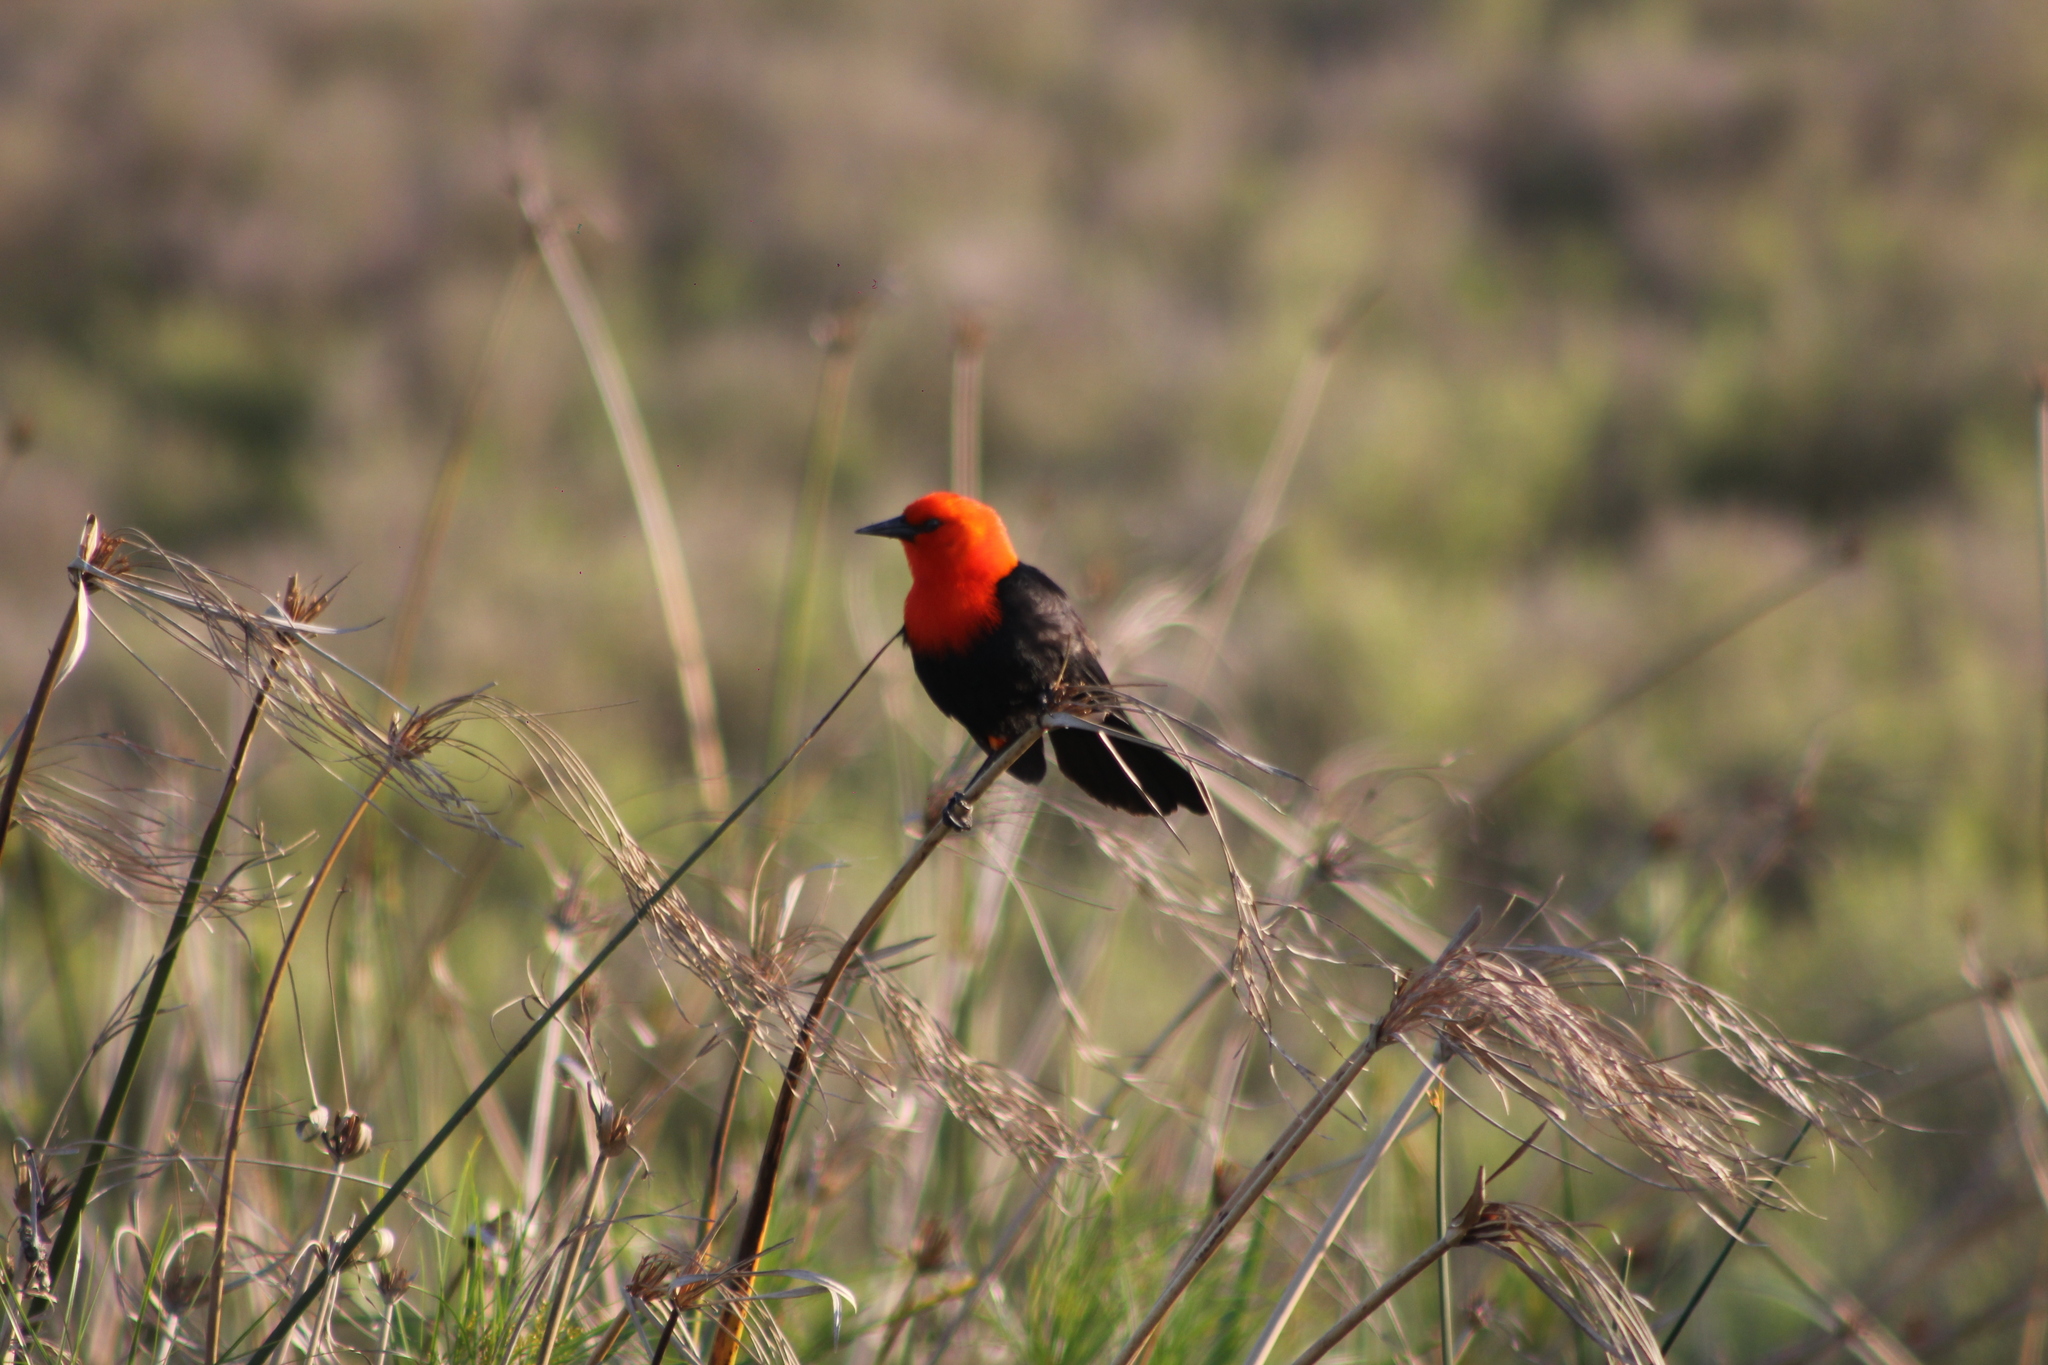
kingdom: Animalia
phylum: Chordata
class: Aves
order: Passeriformes
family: Icteridae
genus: Amblyramphus
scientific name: Amblyramphus holosericeus
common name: Scarlet-headed blackbird
